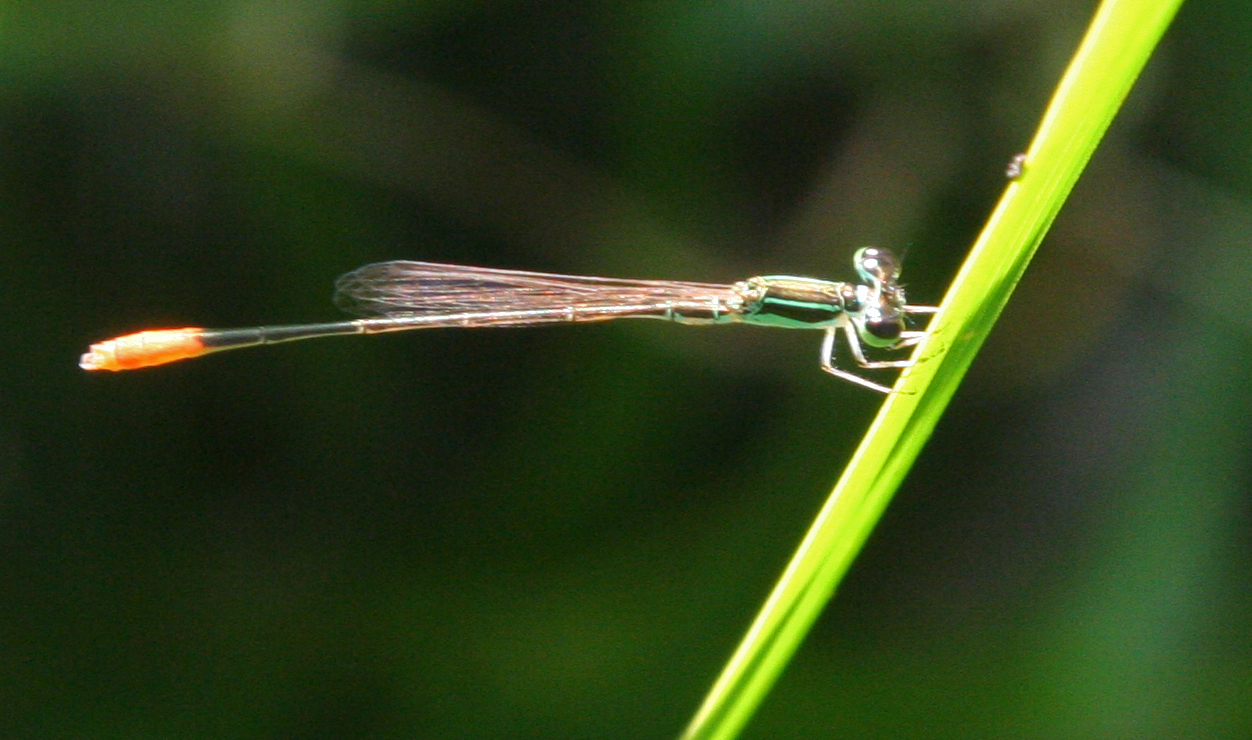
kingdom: Animalia
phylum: Arthropoda
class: Insecta
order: Odonata
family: Coenagrionidae
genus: Agriocnemis
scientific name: Agriocnemis femina
